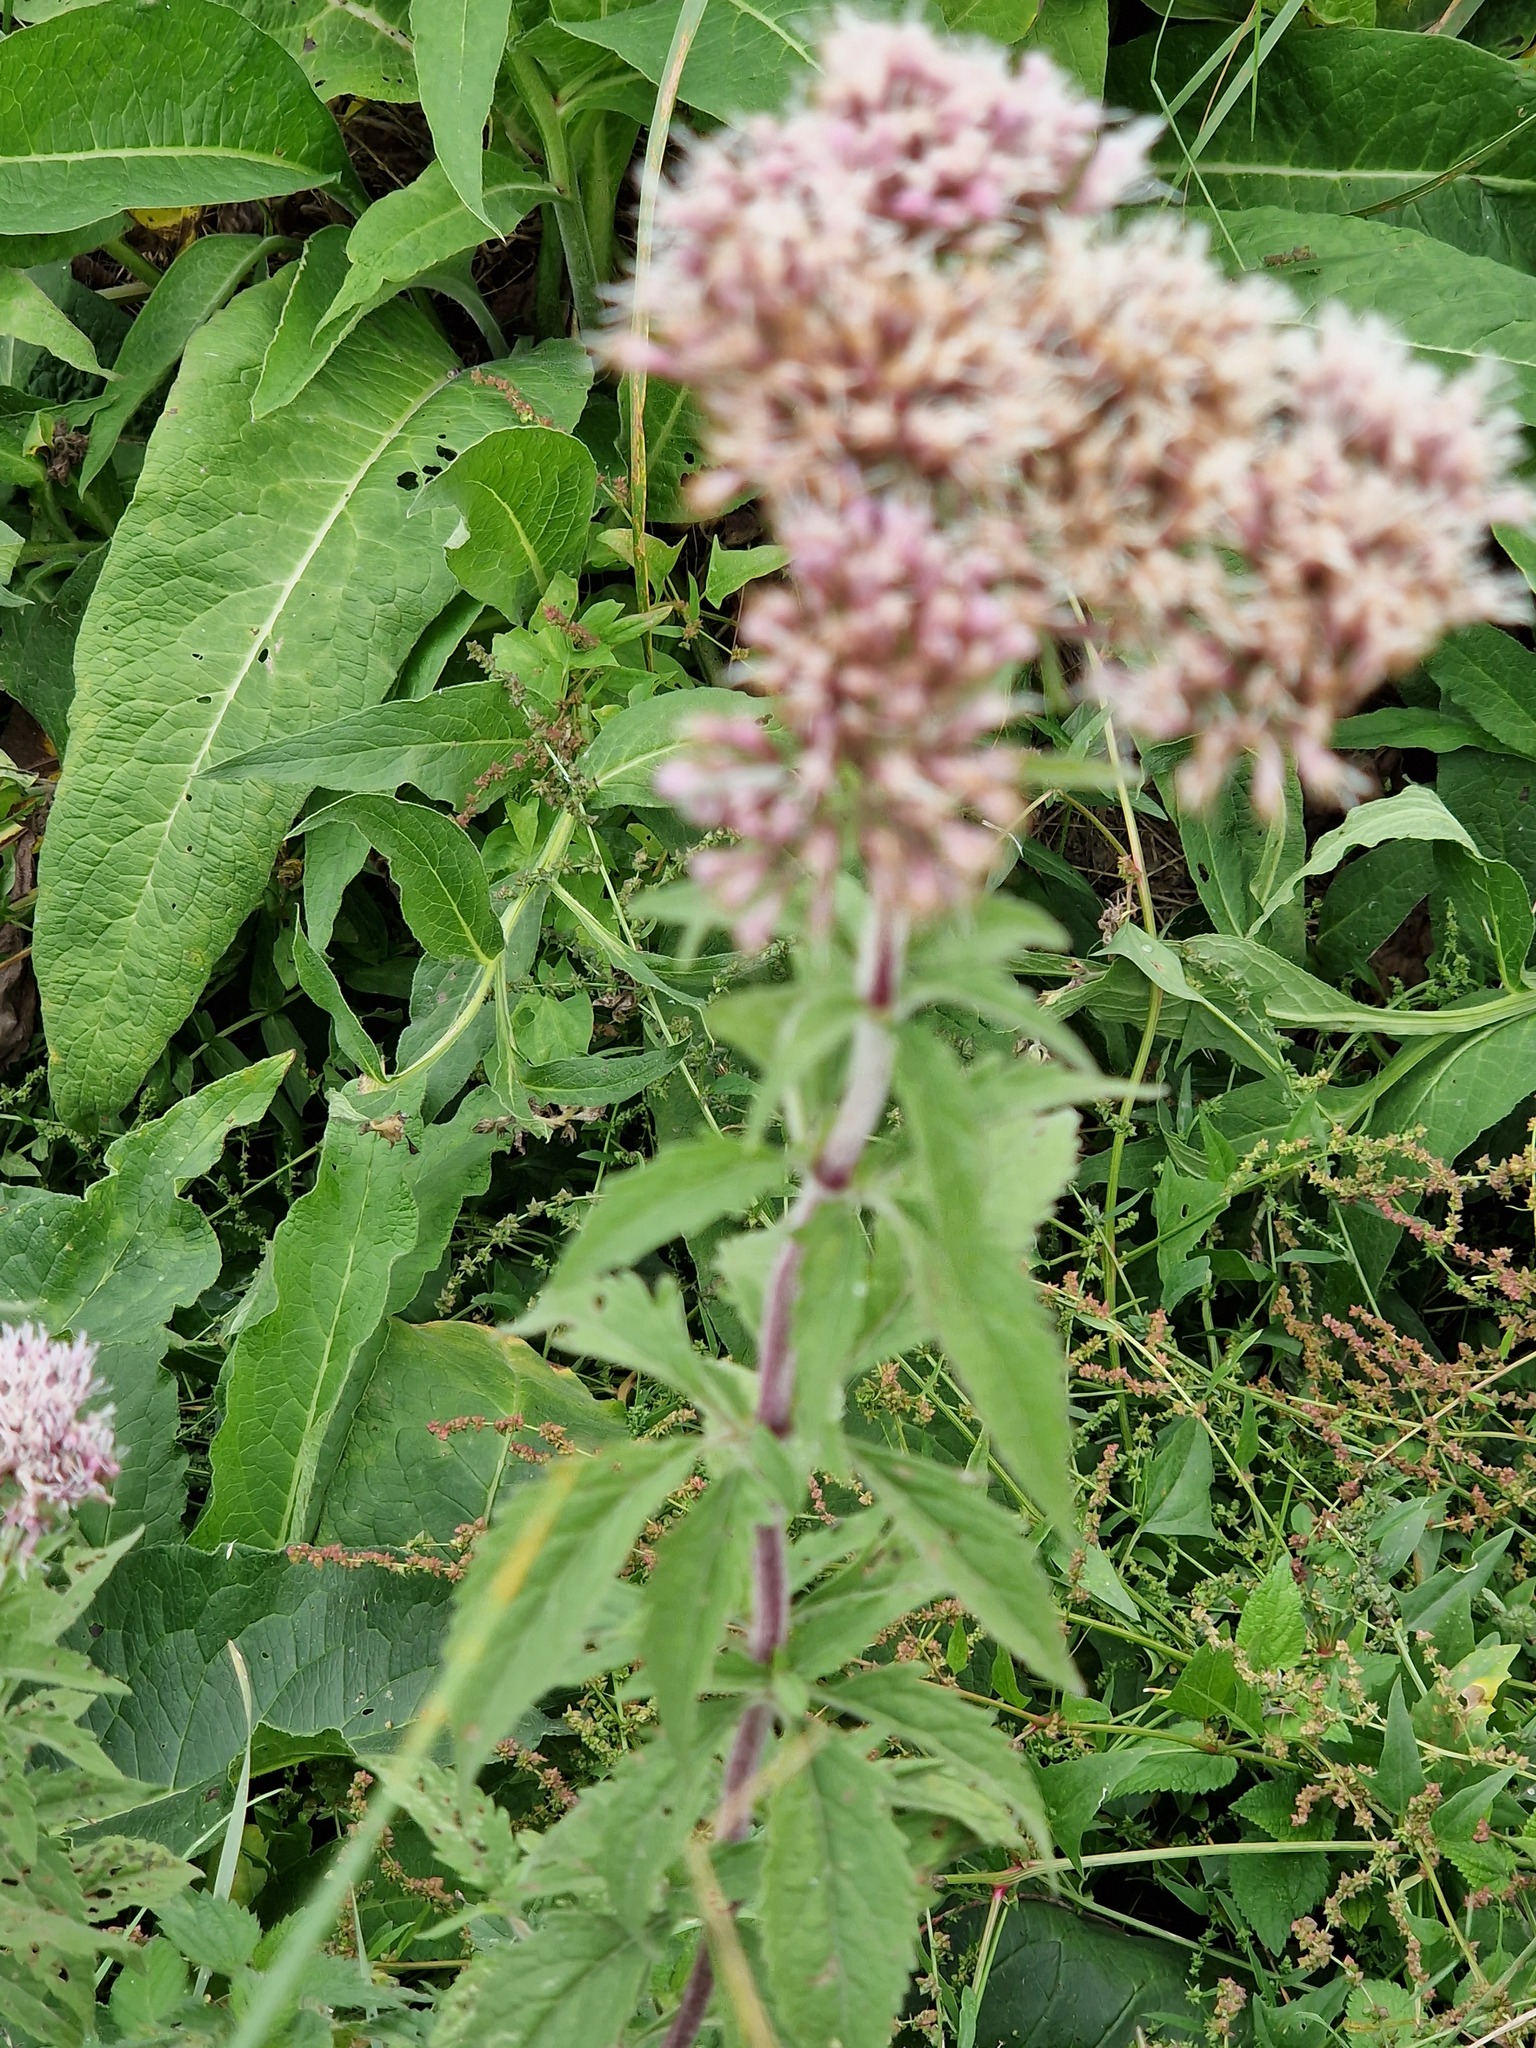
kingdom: Plantae
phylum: Tracheophyta
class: Magnoliopsida
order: Asterales
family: Asteraceae
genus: Eupatorium
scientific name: Eupatorium cannabinum
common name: Hemp-agrimony
